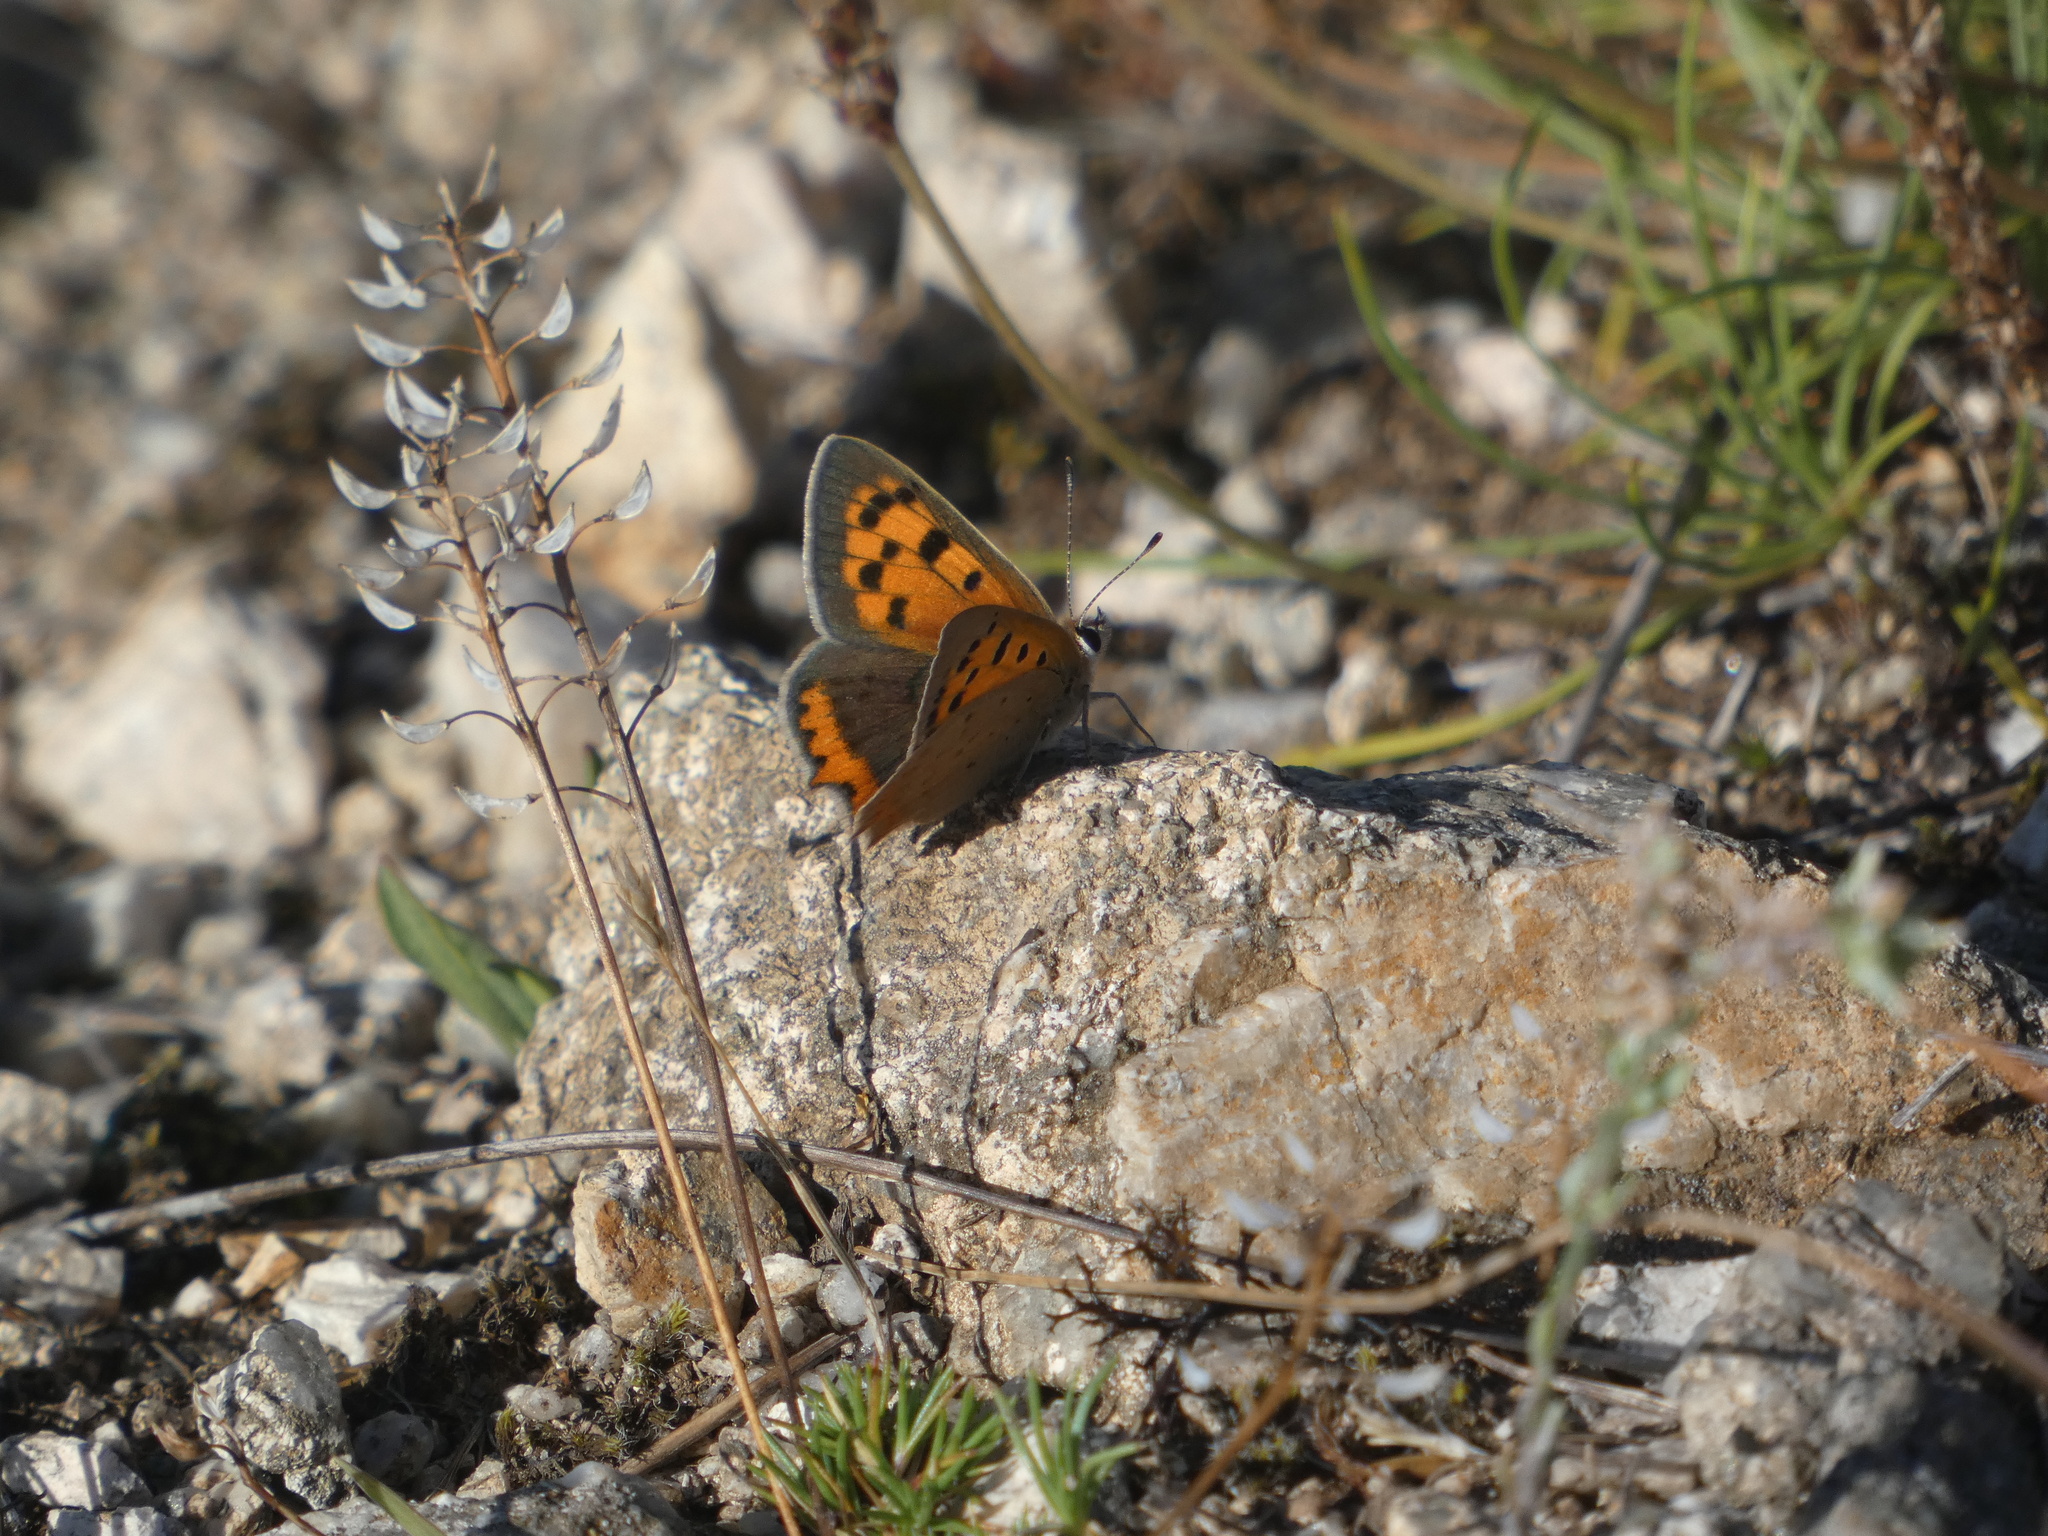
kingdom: Animalia
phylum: Arthropoda
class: Insecta
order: Lepidoptera
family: Lycaenidae
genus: Lycaena
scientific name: Lycaena phlaeas
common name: Small copper
